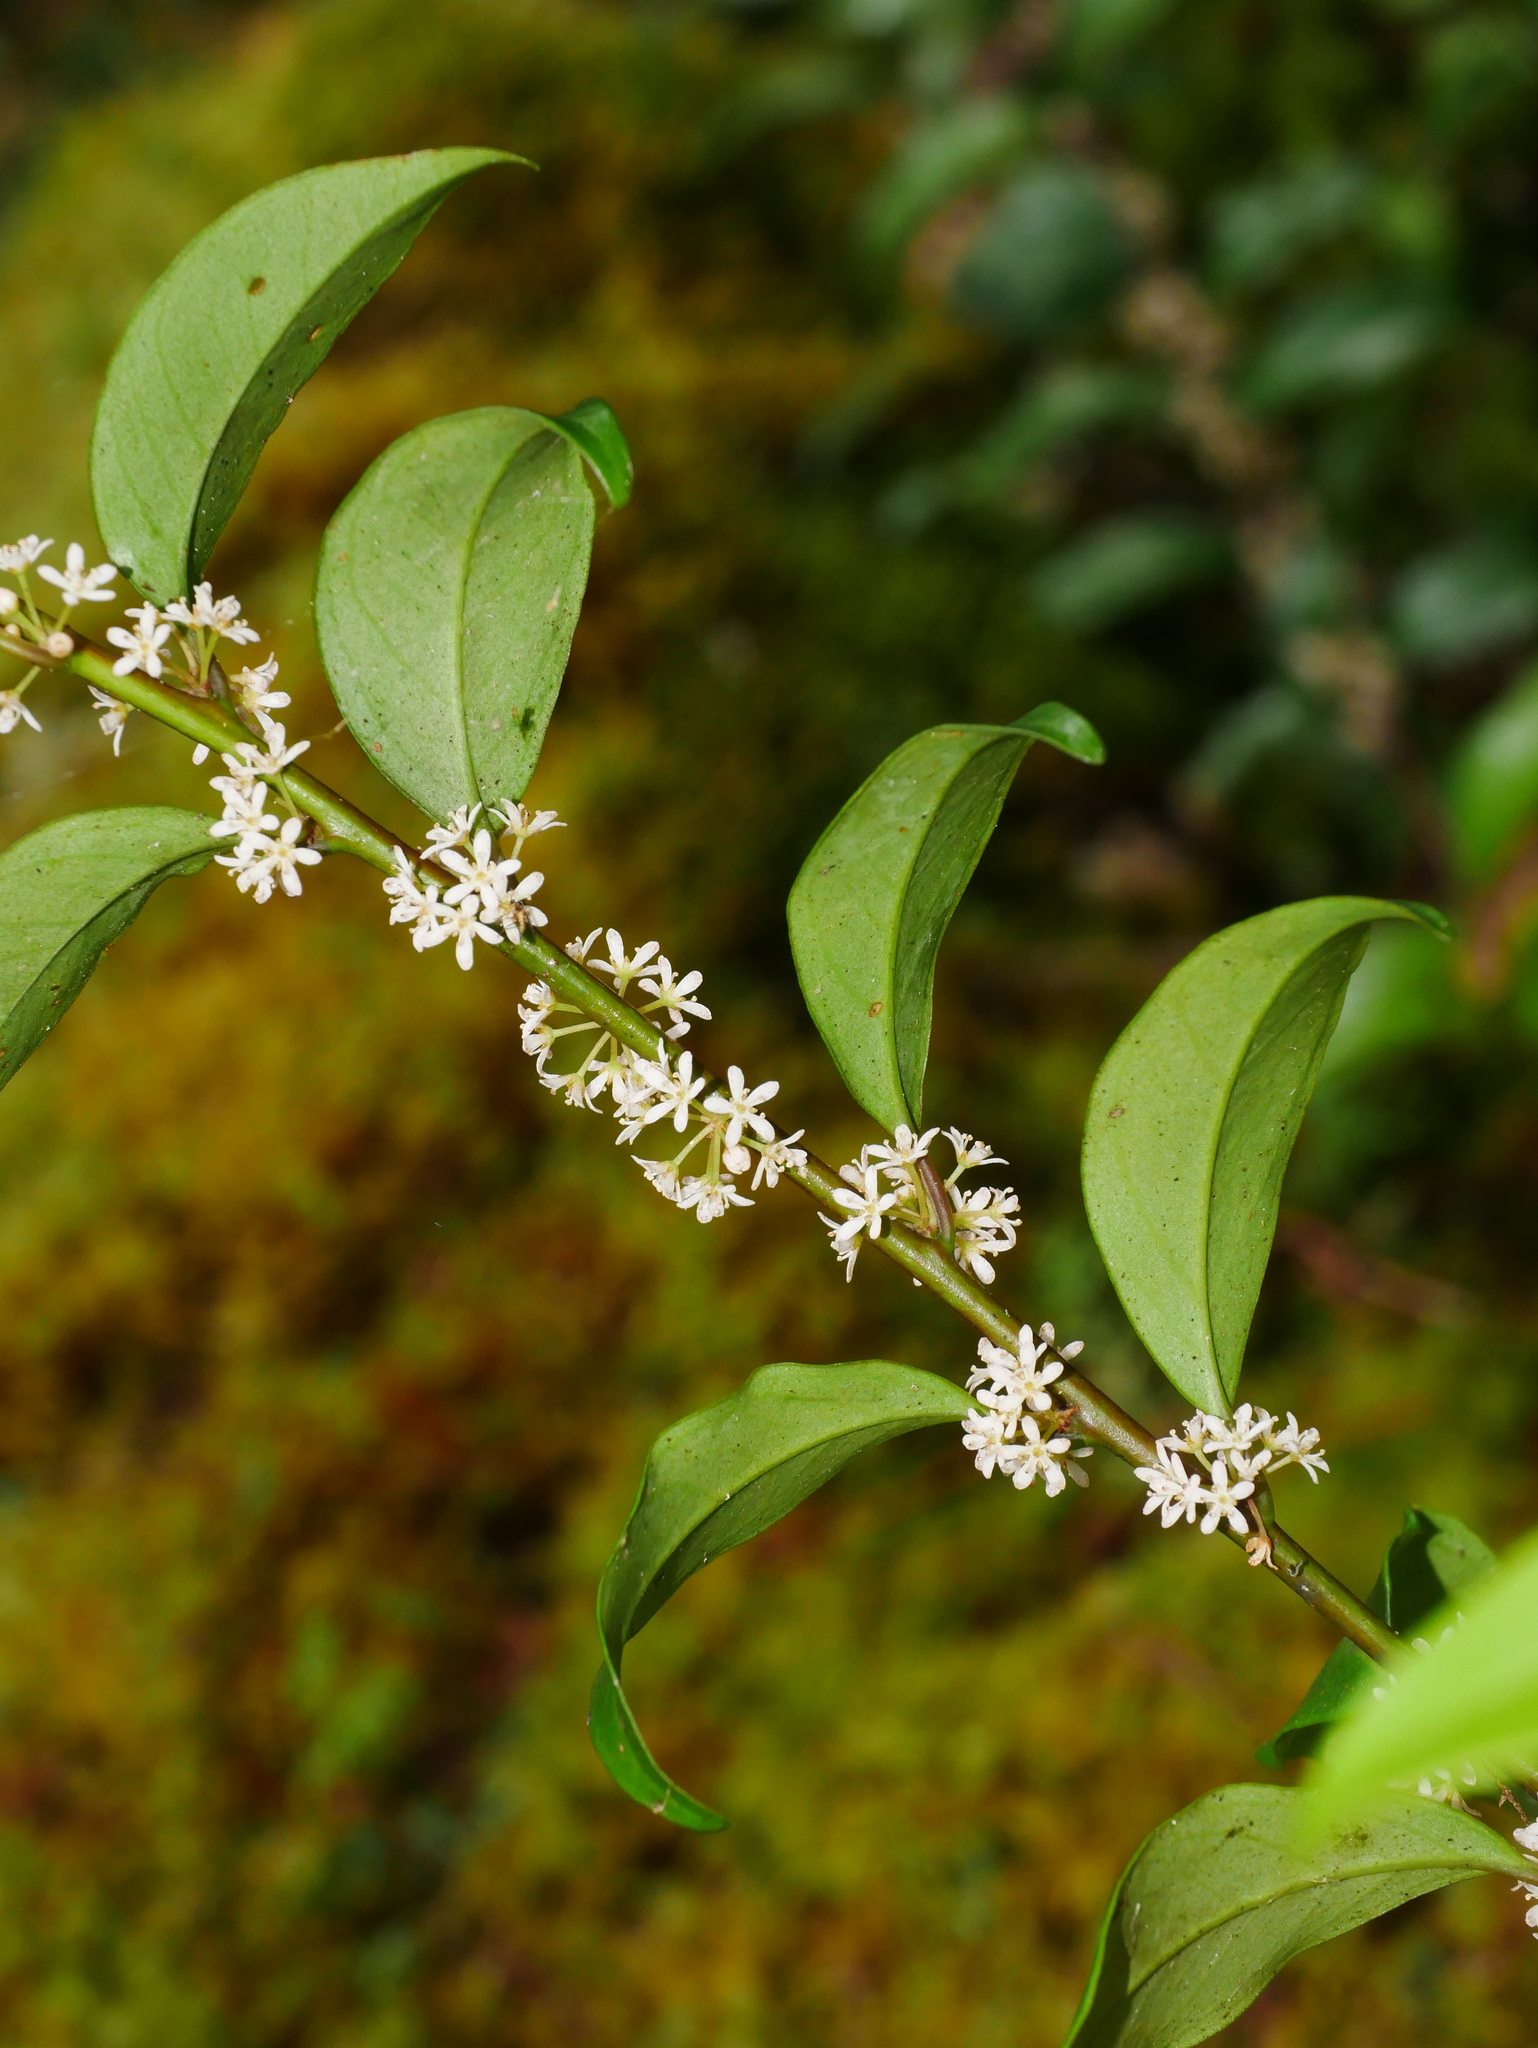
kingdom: Plantae
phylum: Tracheophyta
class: Magnoliopsida
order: Ericales
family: Primulaceae
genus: Myrsine
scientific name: Myrsine stolonifera
